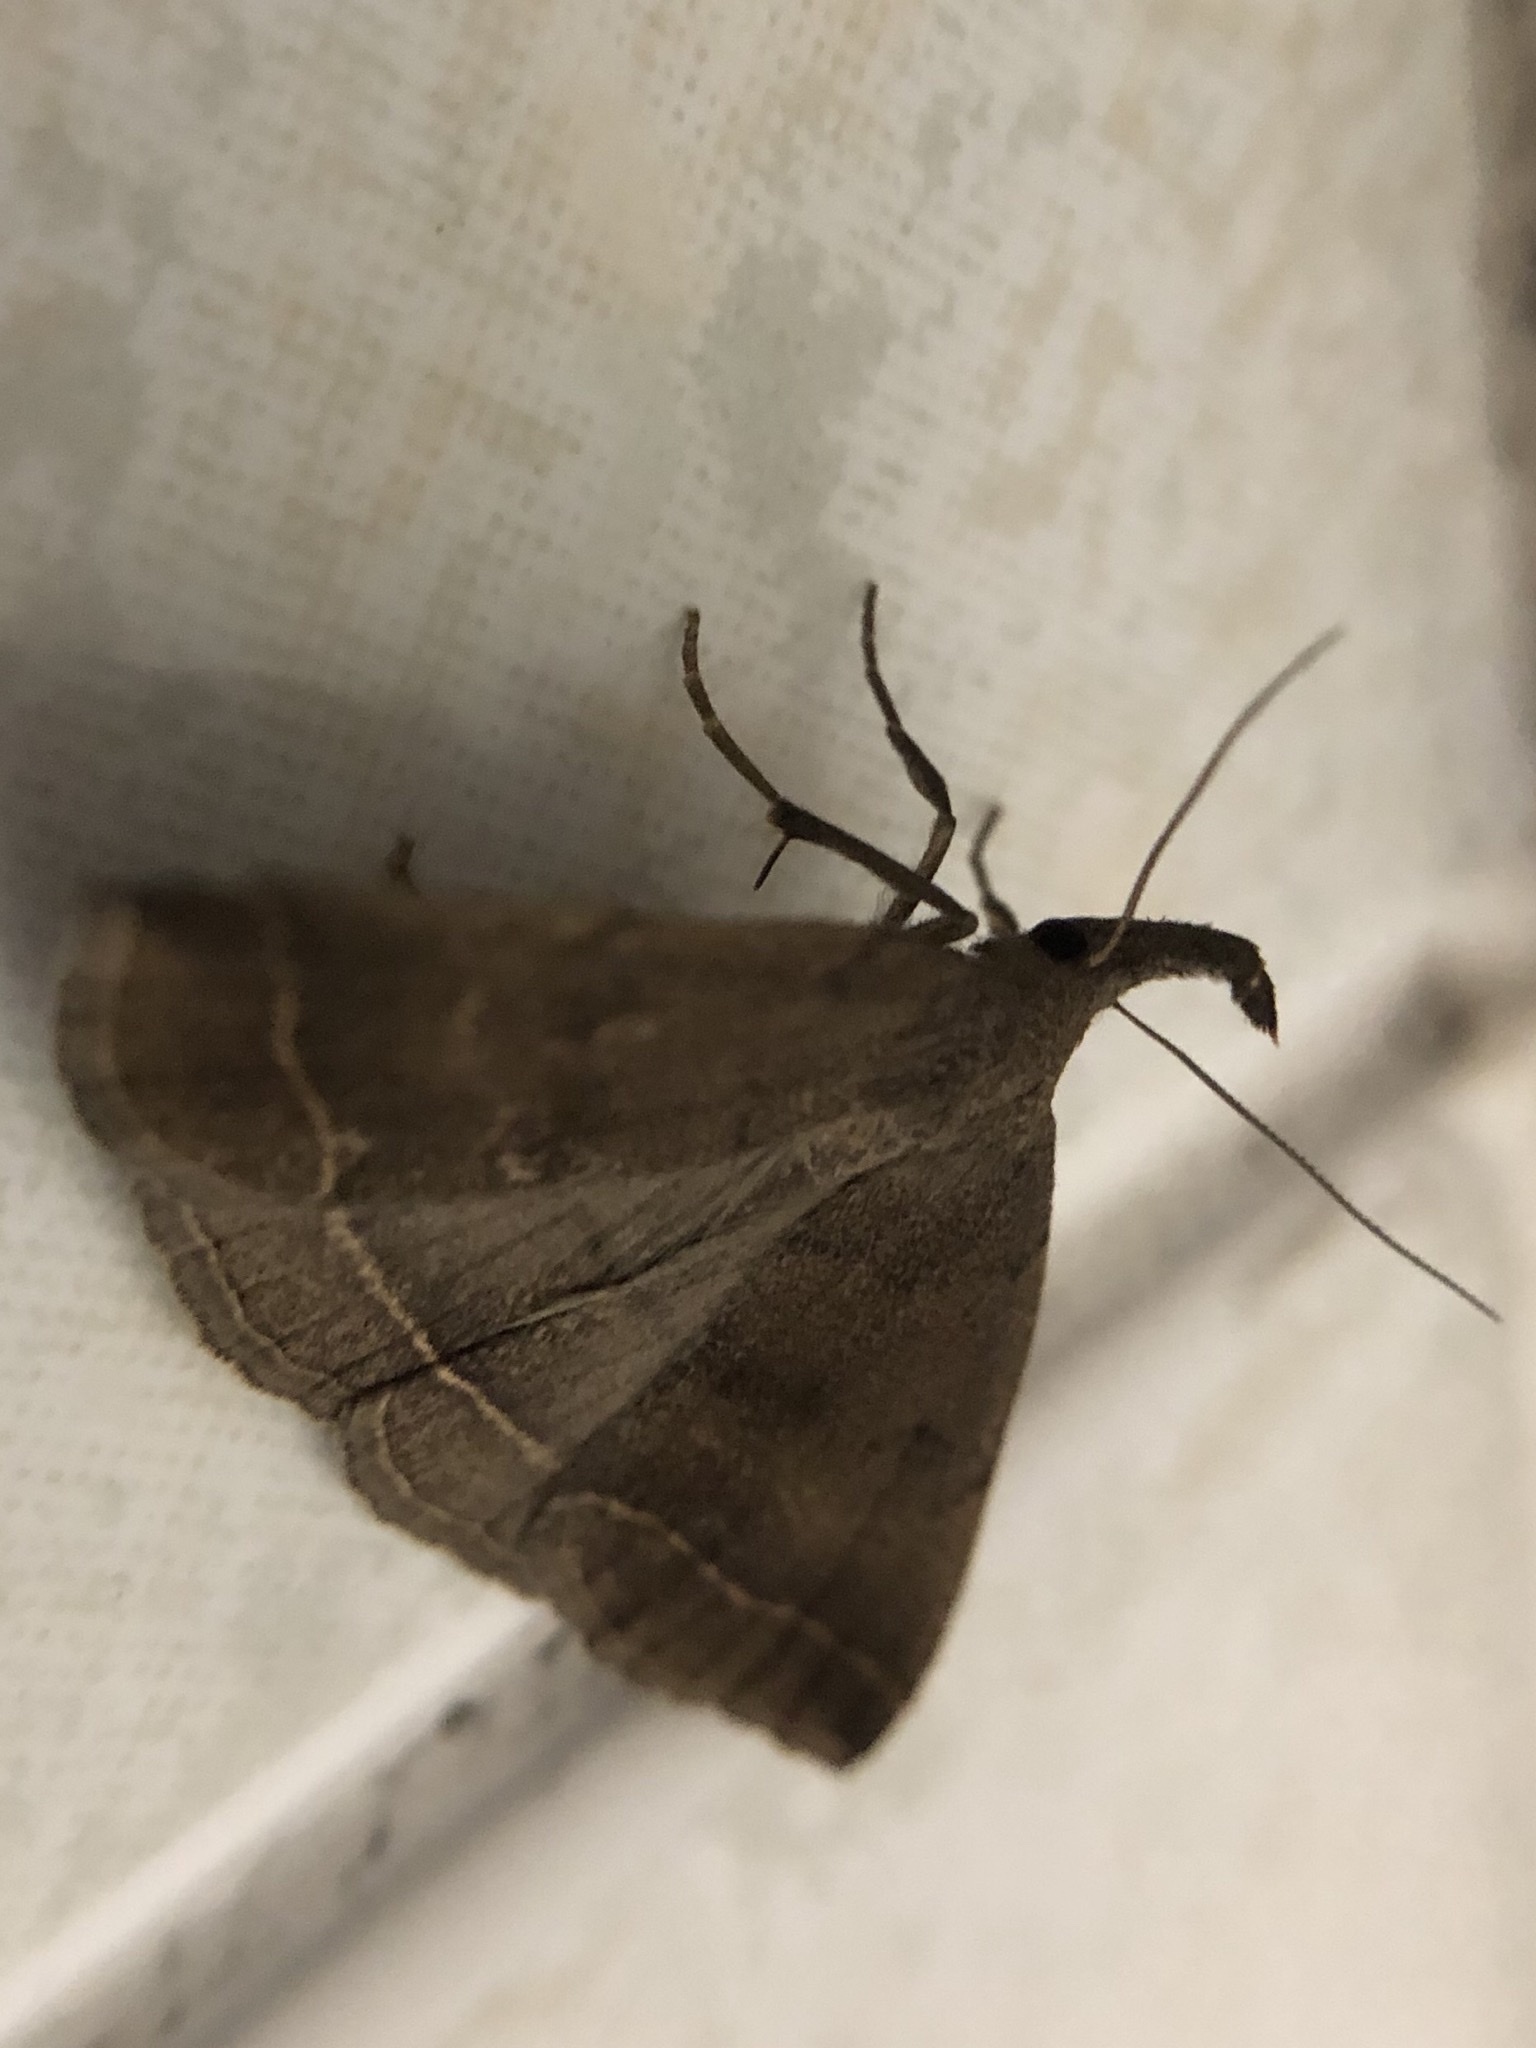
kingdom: Animalia
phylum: Arthropoda
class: Insecta
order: Lepidoptera
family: Erebidae
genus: Pechipogo
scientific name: Pechipogo plumigeralis
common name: Plumed fan-foot
